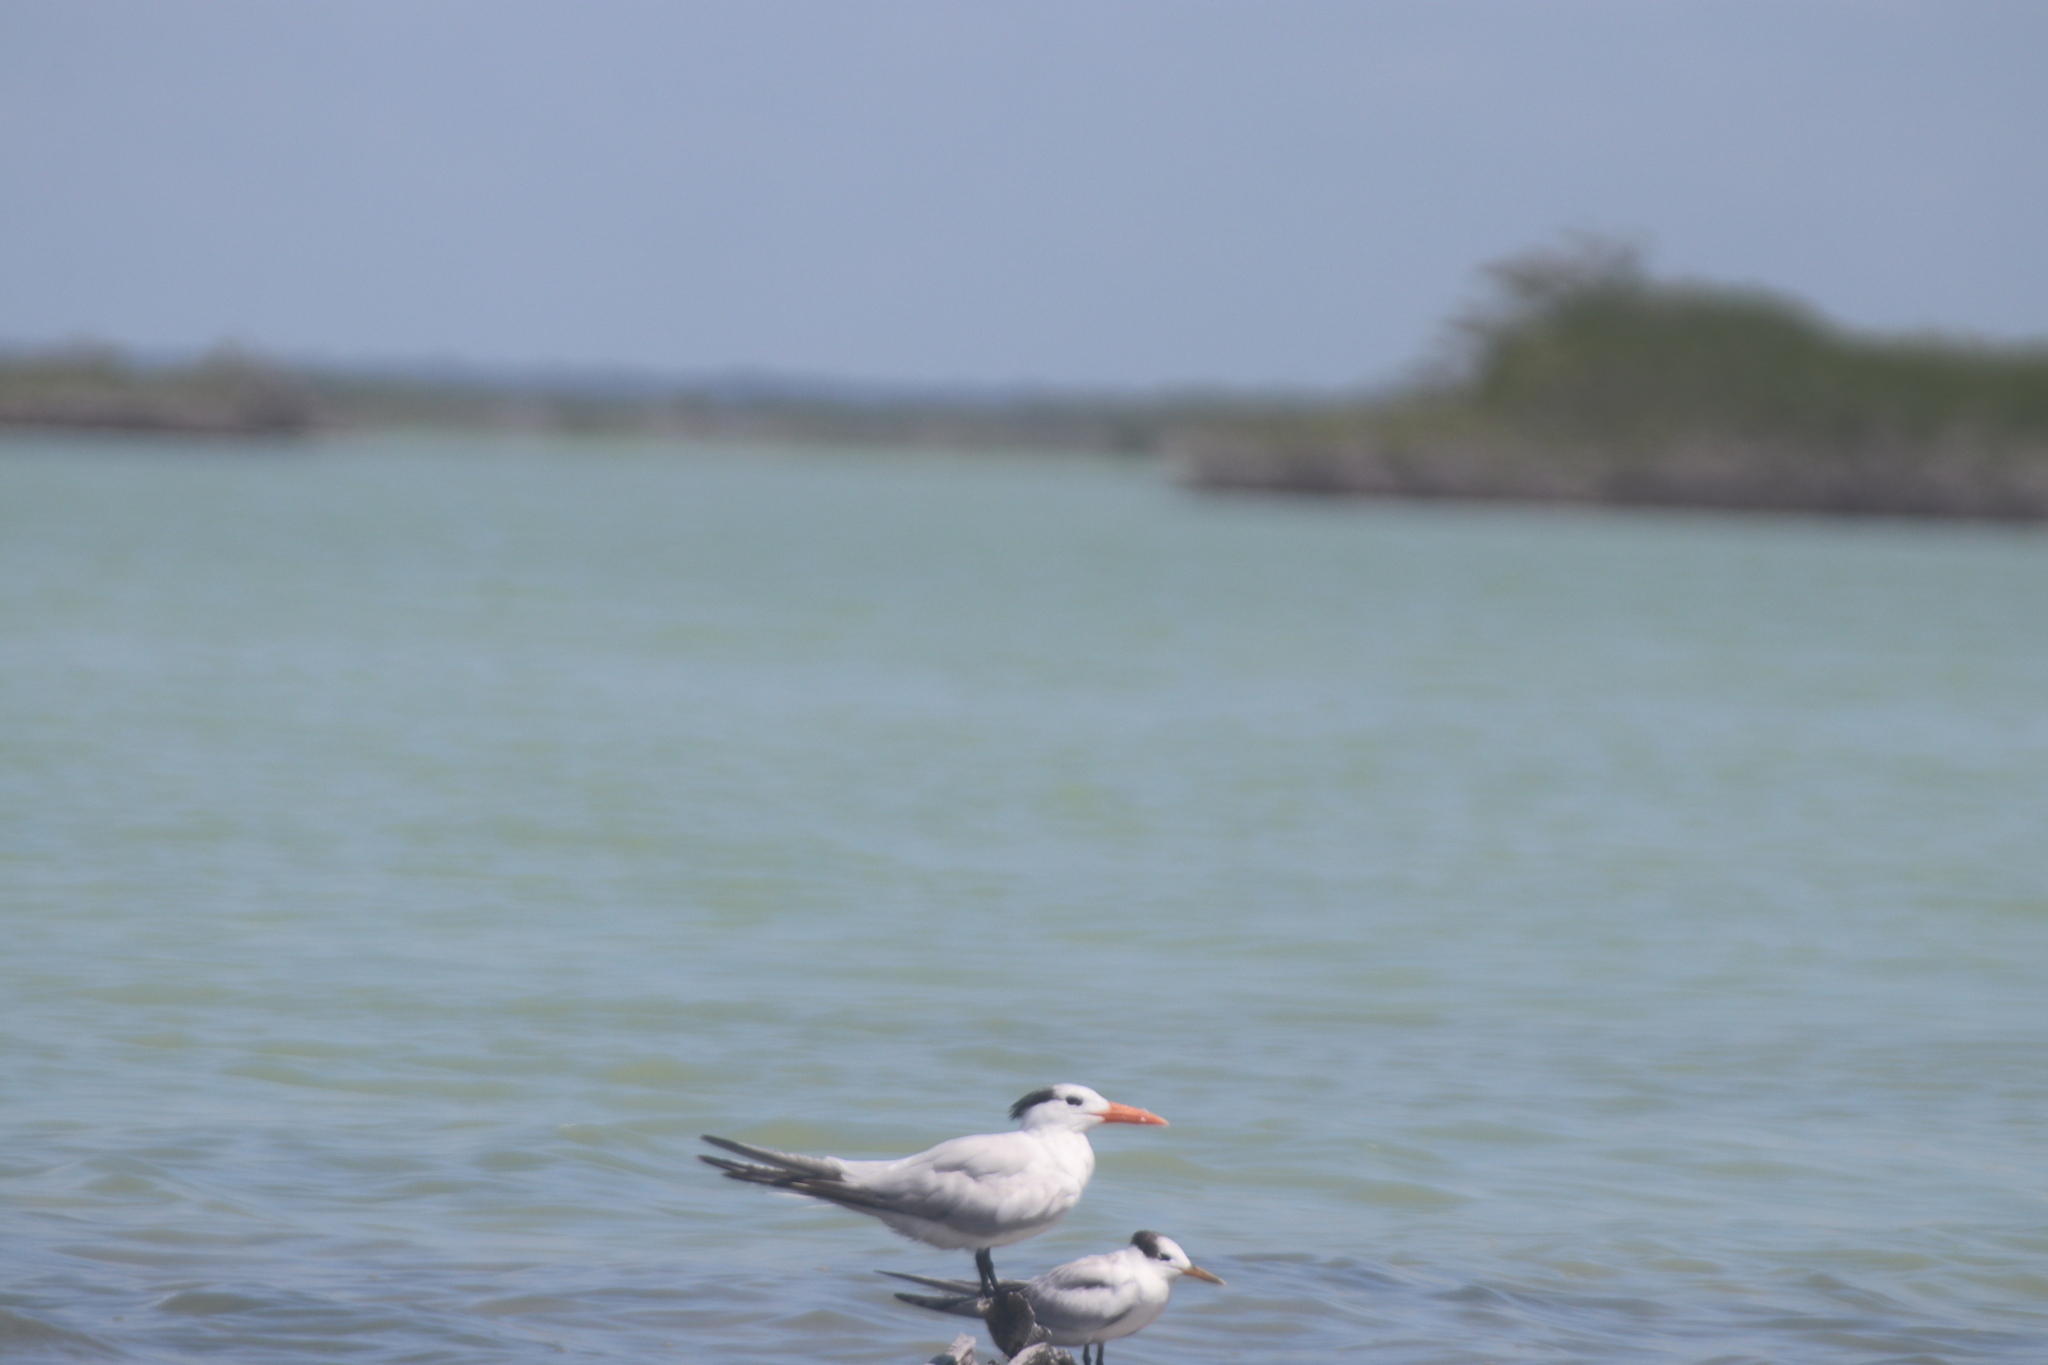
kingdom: Animalia
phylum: Chordata
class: Aves
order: Charadriiformes
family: Laridae
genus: Thalasseus
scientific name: Thalasseus maximus
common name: Royal tern
